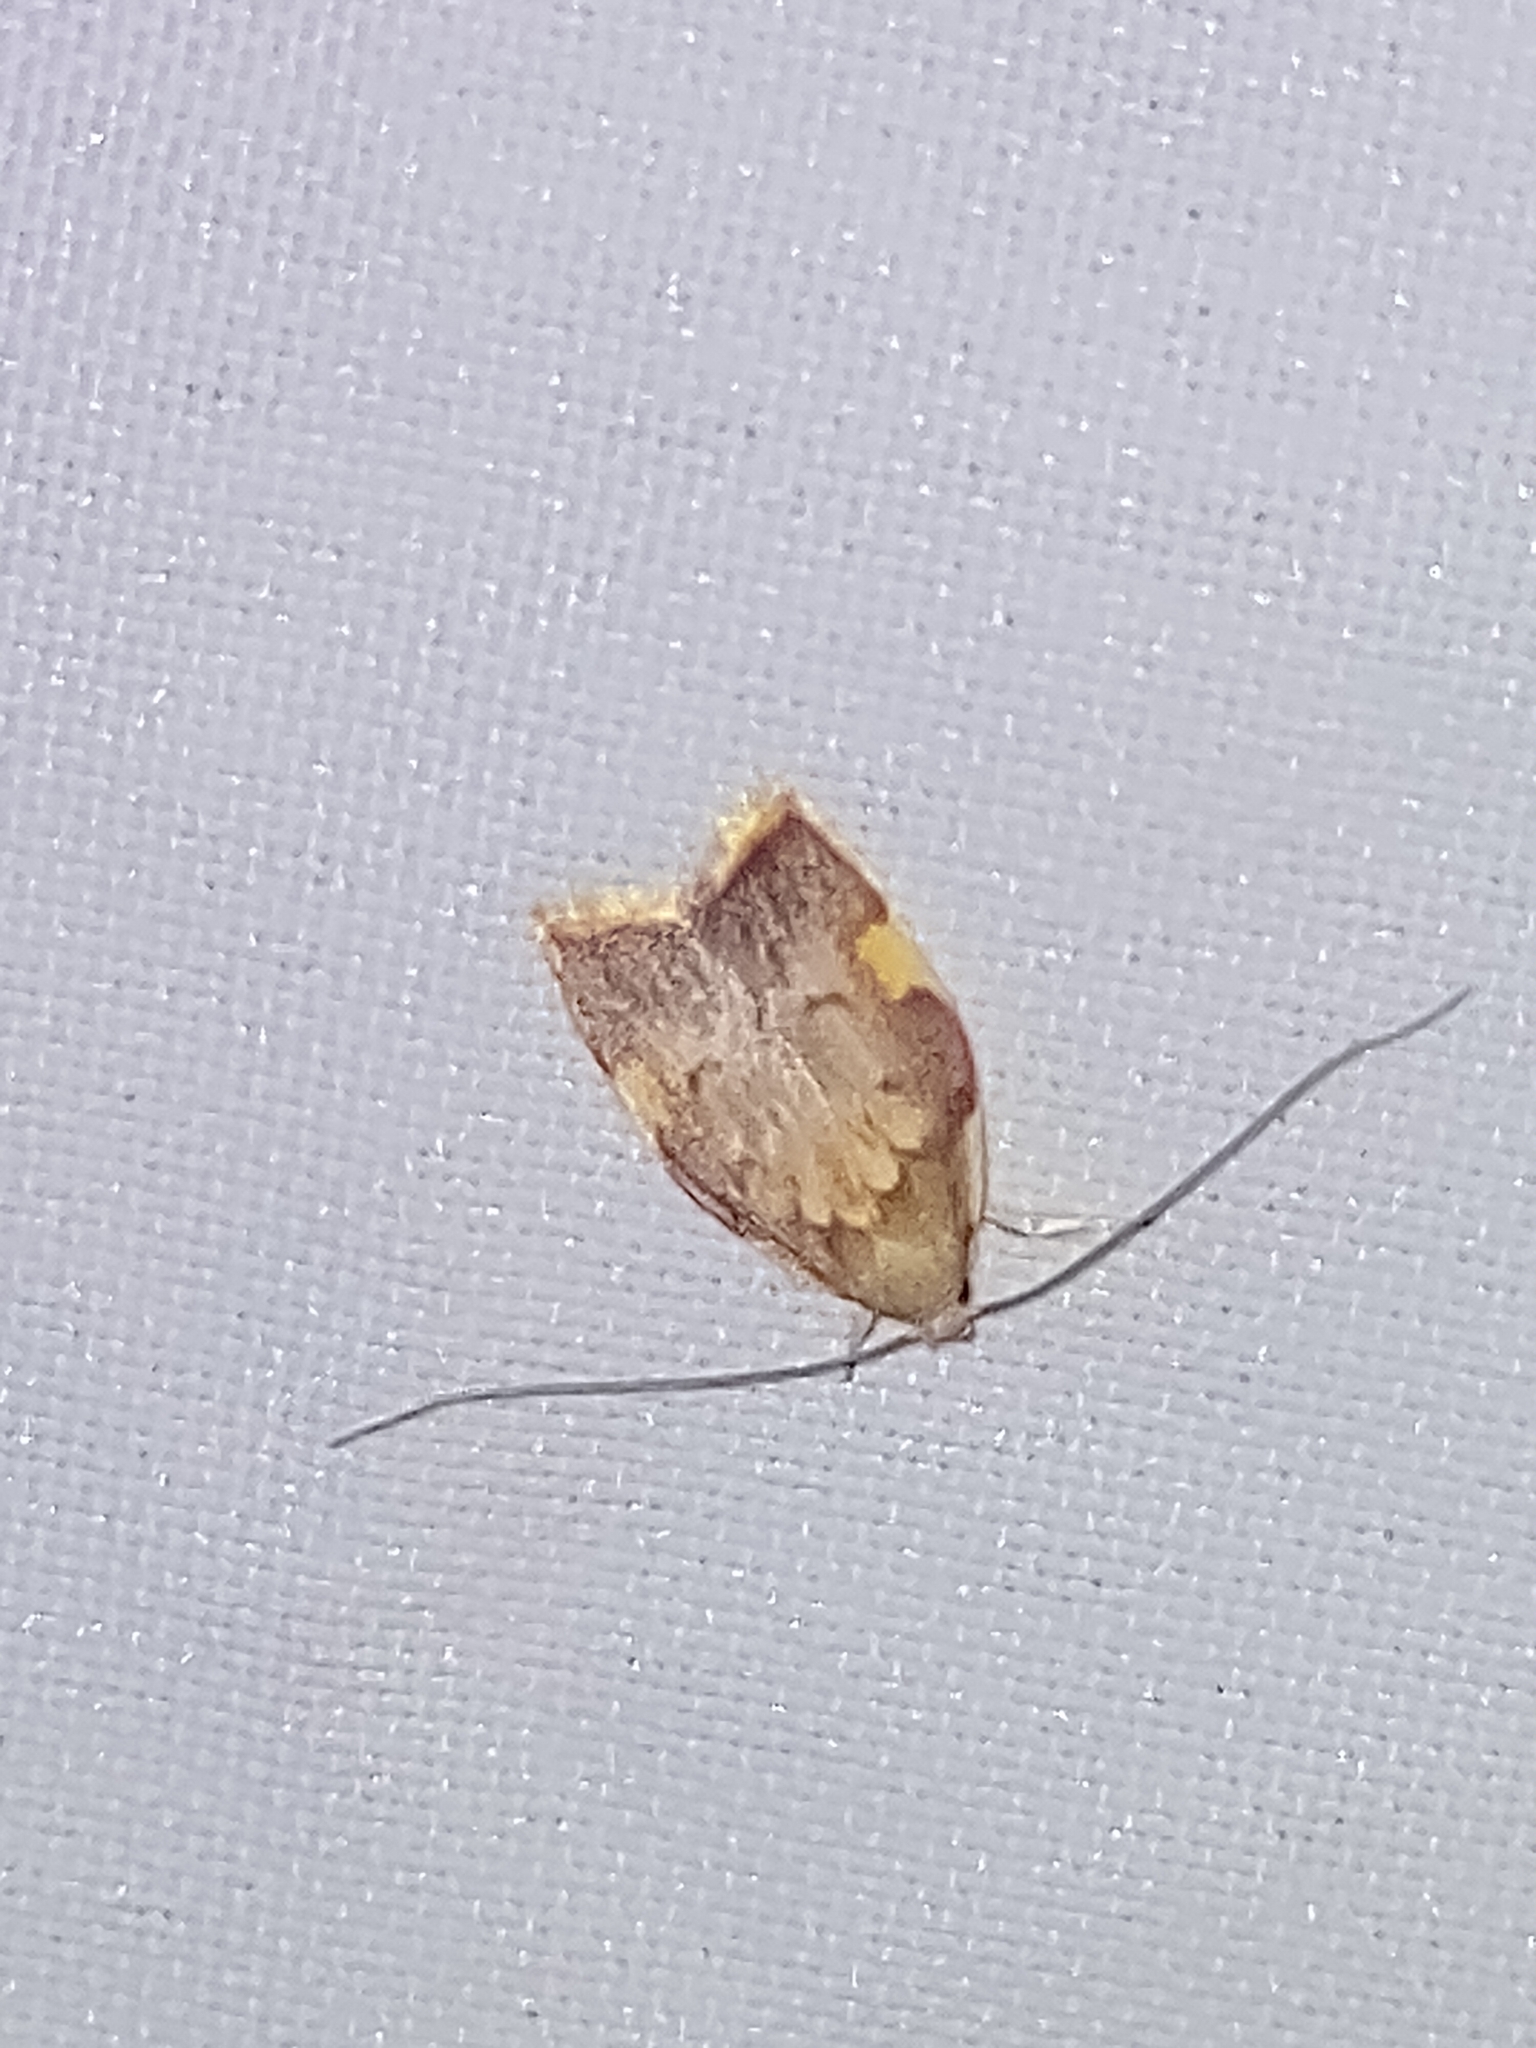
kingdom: Animalia
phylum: Arthropoda
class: Insecta
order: Lepidoptera
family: Peleopodidae
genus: Carcina
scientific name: Carcina quercana
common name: Moth
